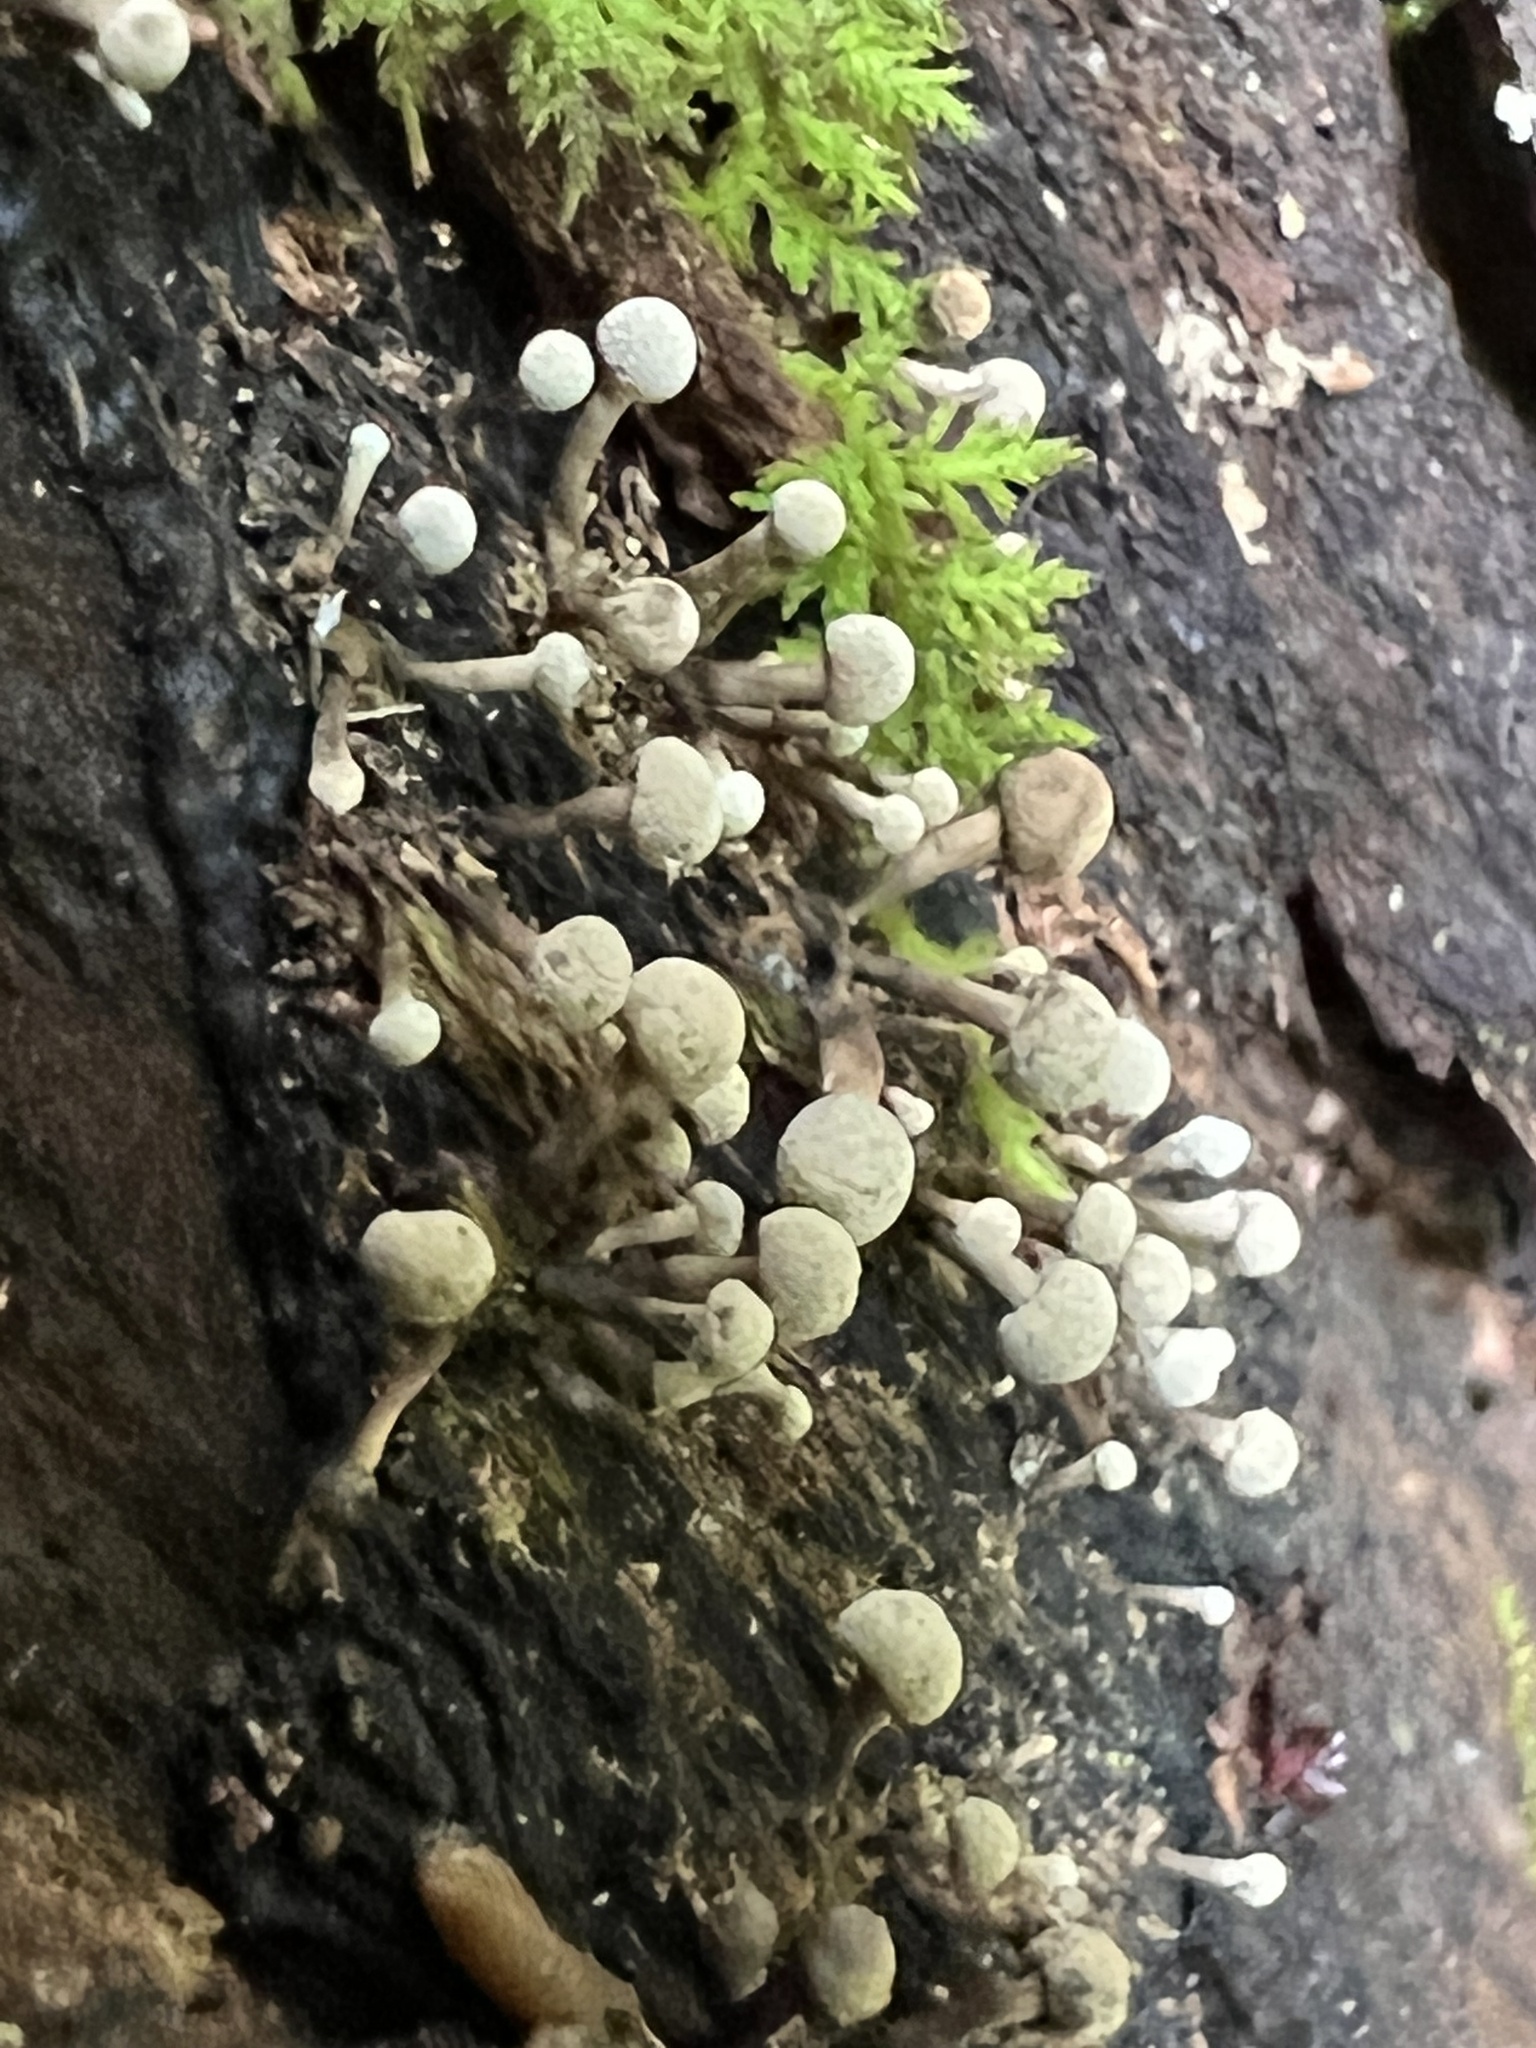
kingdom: Fungi
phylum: Basidiomycota
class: Atractiellomycetes
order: Atractiellales
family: Phleogenaceae
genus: Phleogena
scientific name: Phleogena faginea
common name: Fenugreek stalkball
